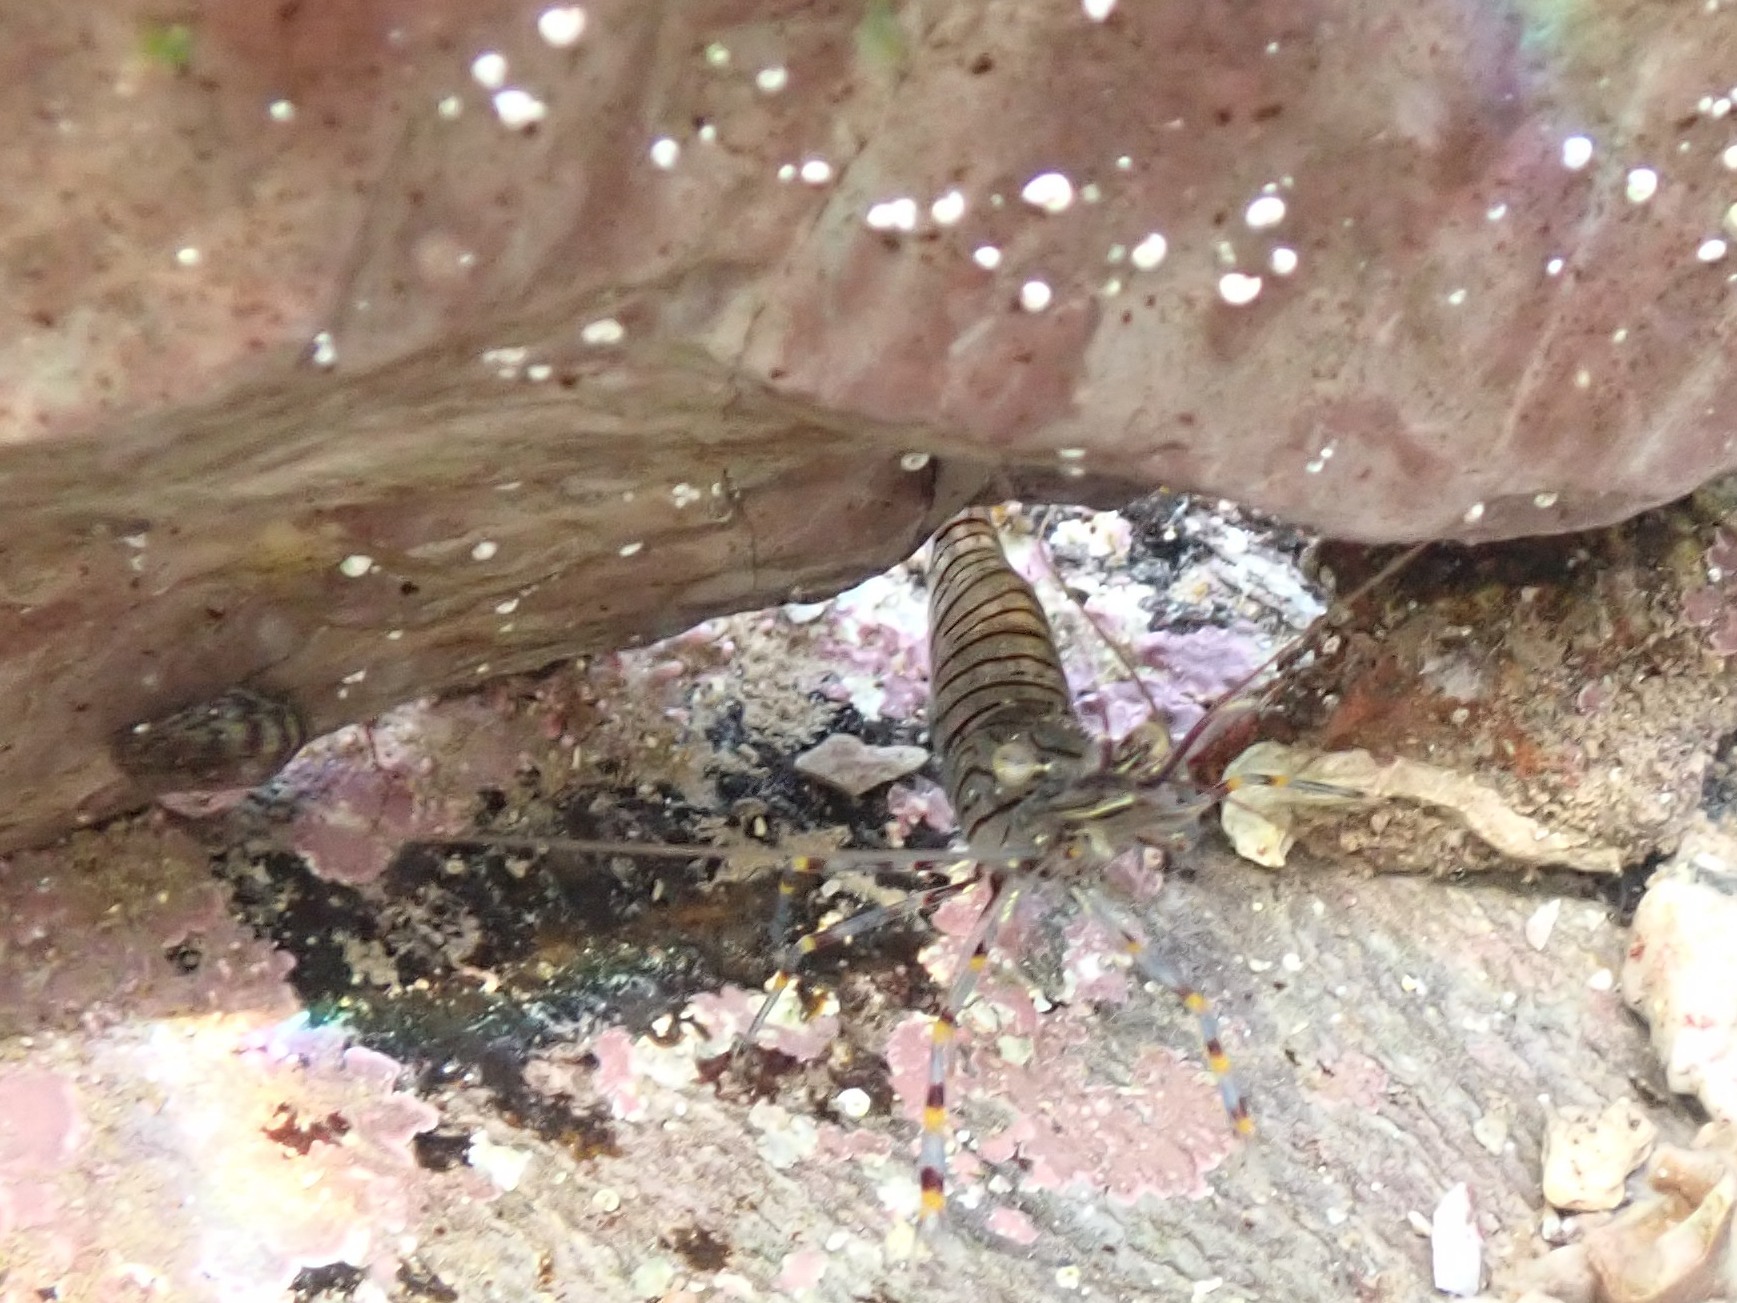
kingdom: Animalia
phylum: Arthropoda
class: Malacostraca
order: Decapoda
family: Palaemonidae
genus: Palaemon
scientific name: Palaemon serratus
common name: Common prawn
